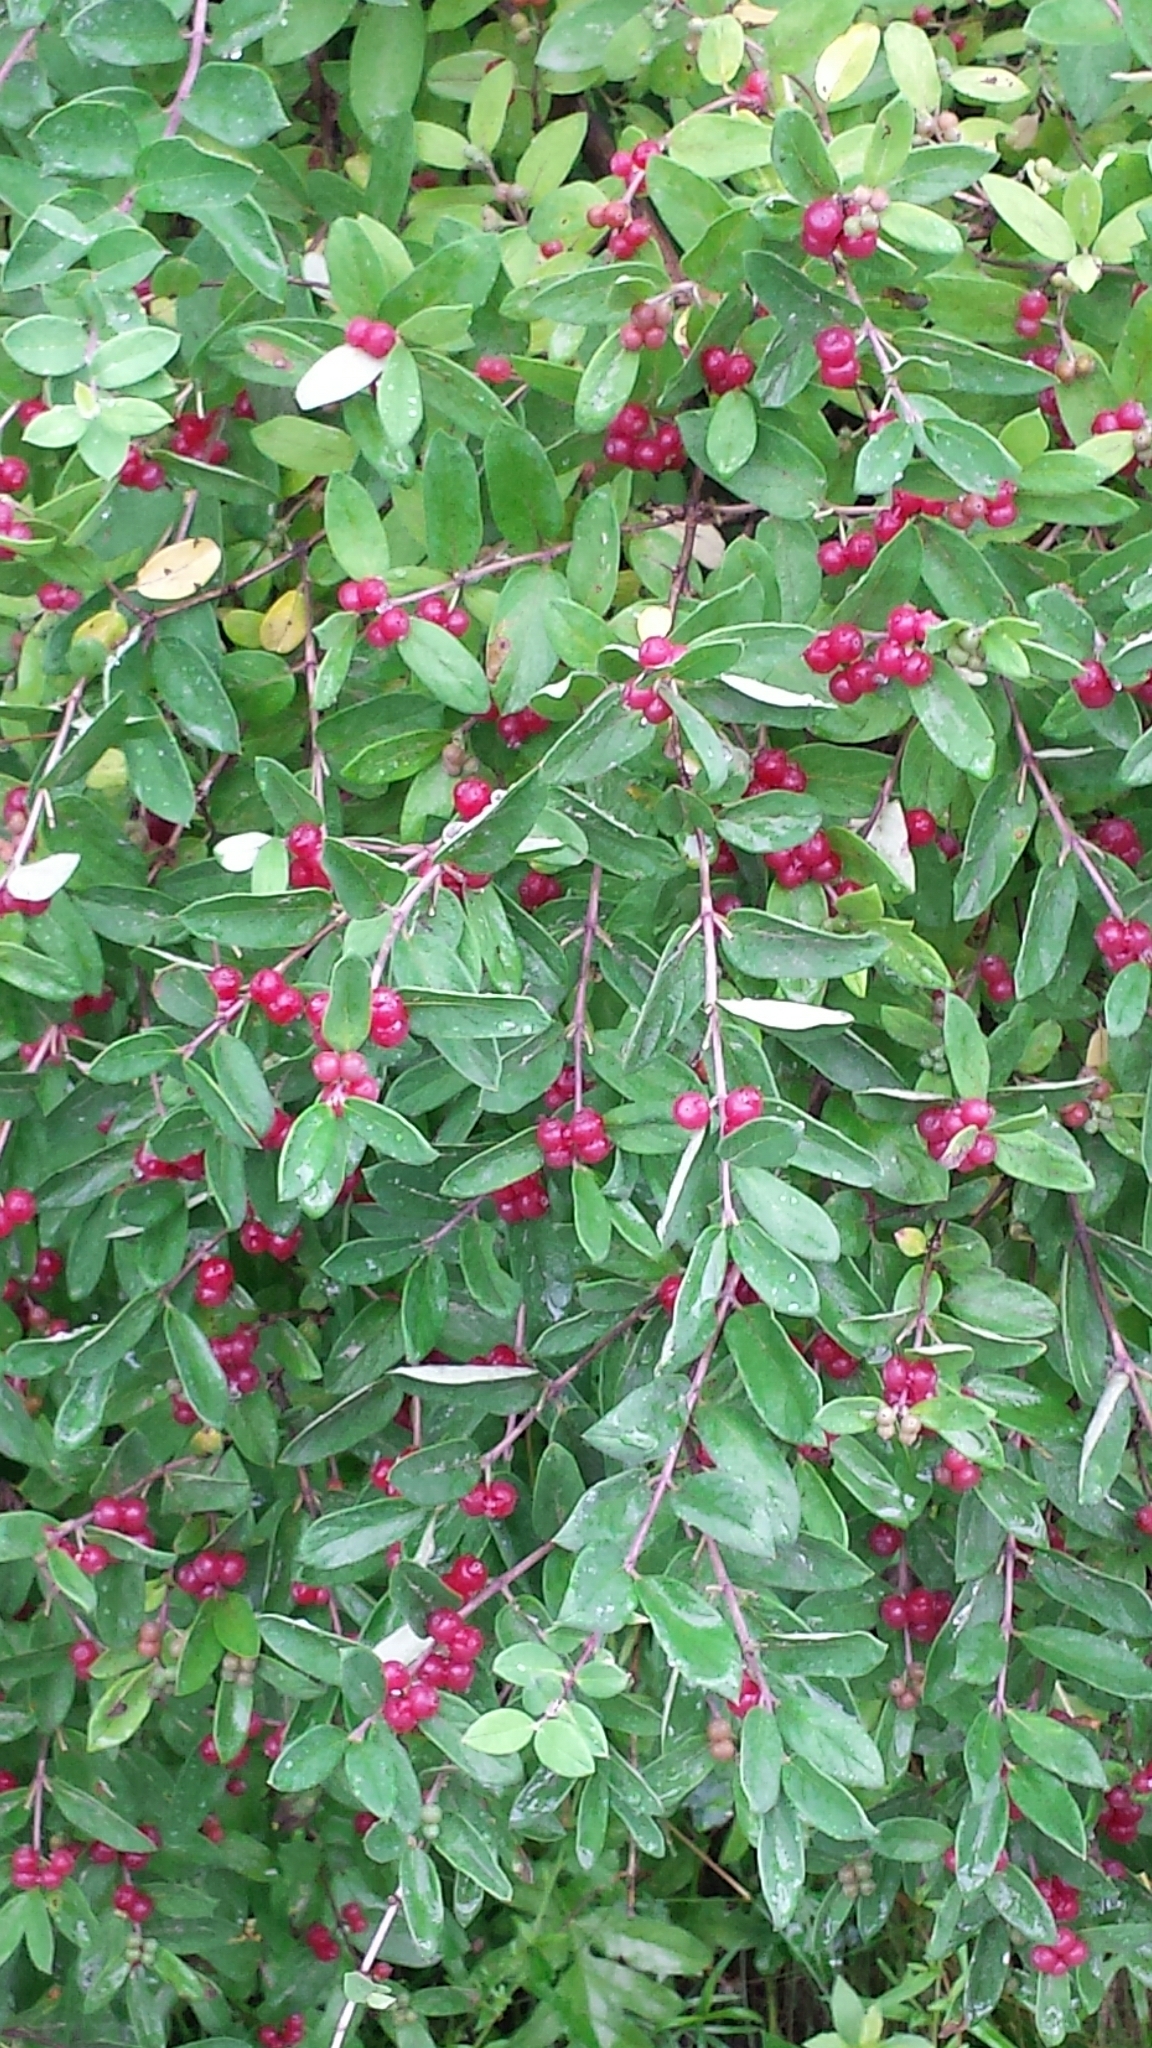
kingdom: Plantae
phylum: Tracheophyta
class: Magnoliopsida
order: Dipsacales
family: Caprifoliaceae
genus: Lonicera
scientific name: Lonicera morrowii
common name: Morrow's honeysuckle
